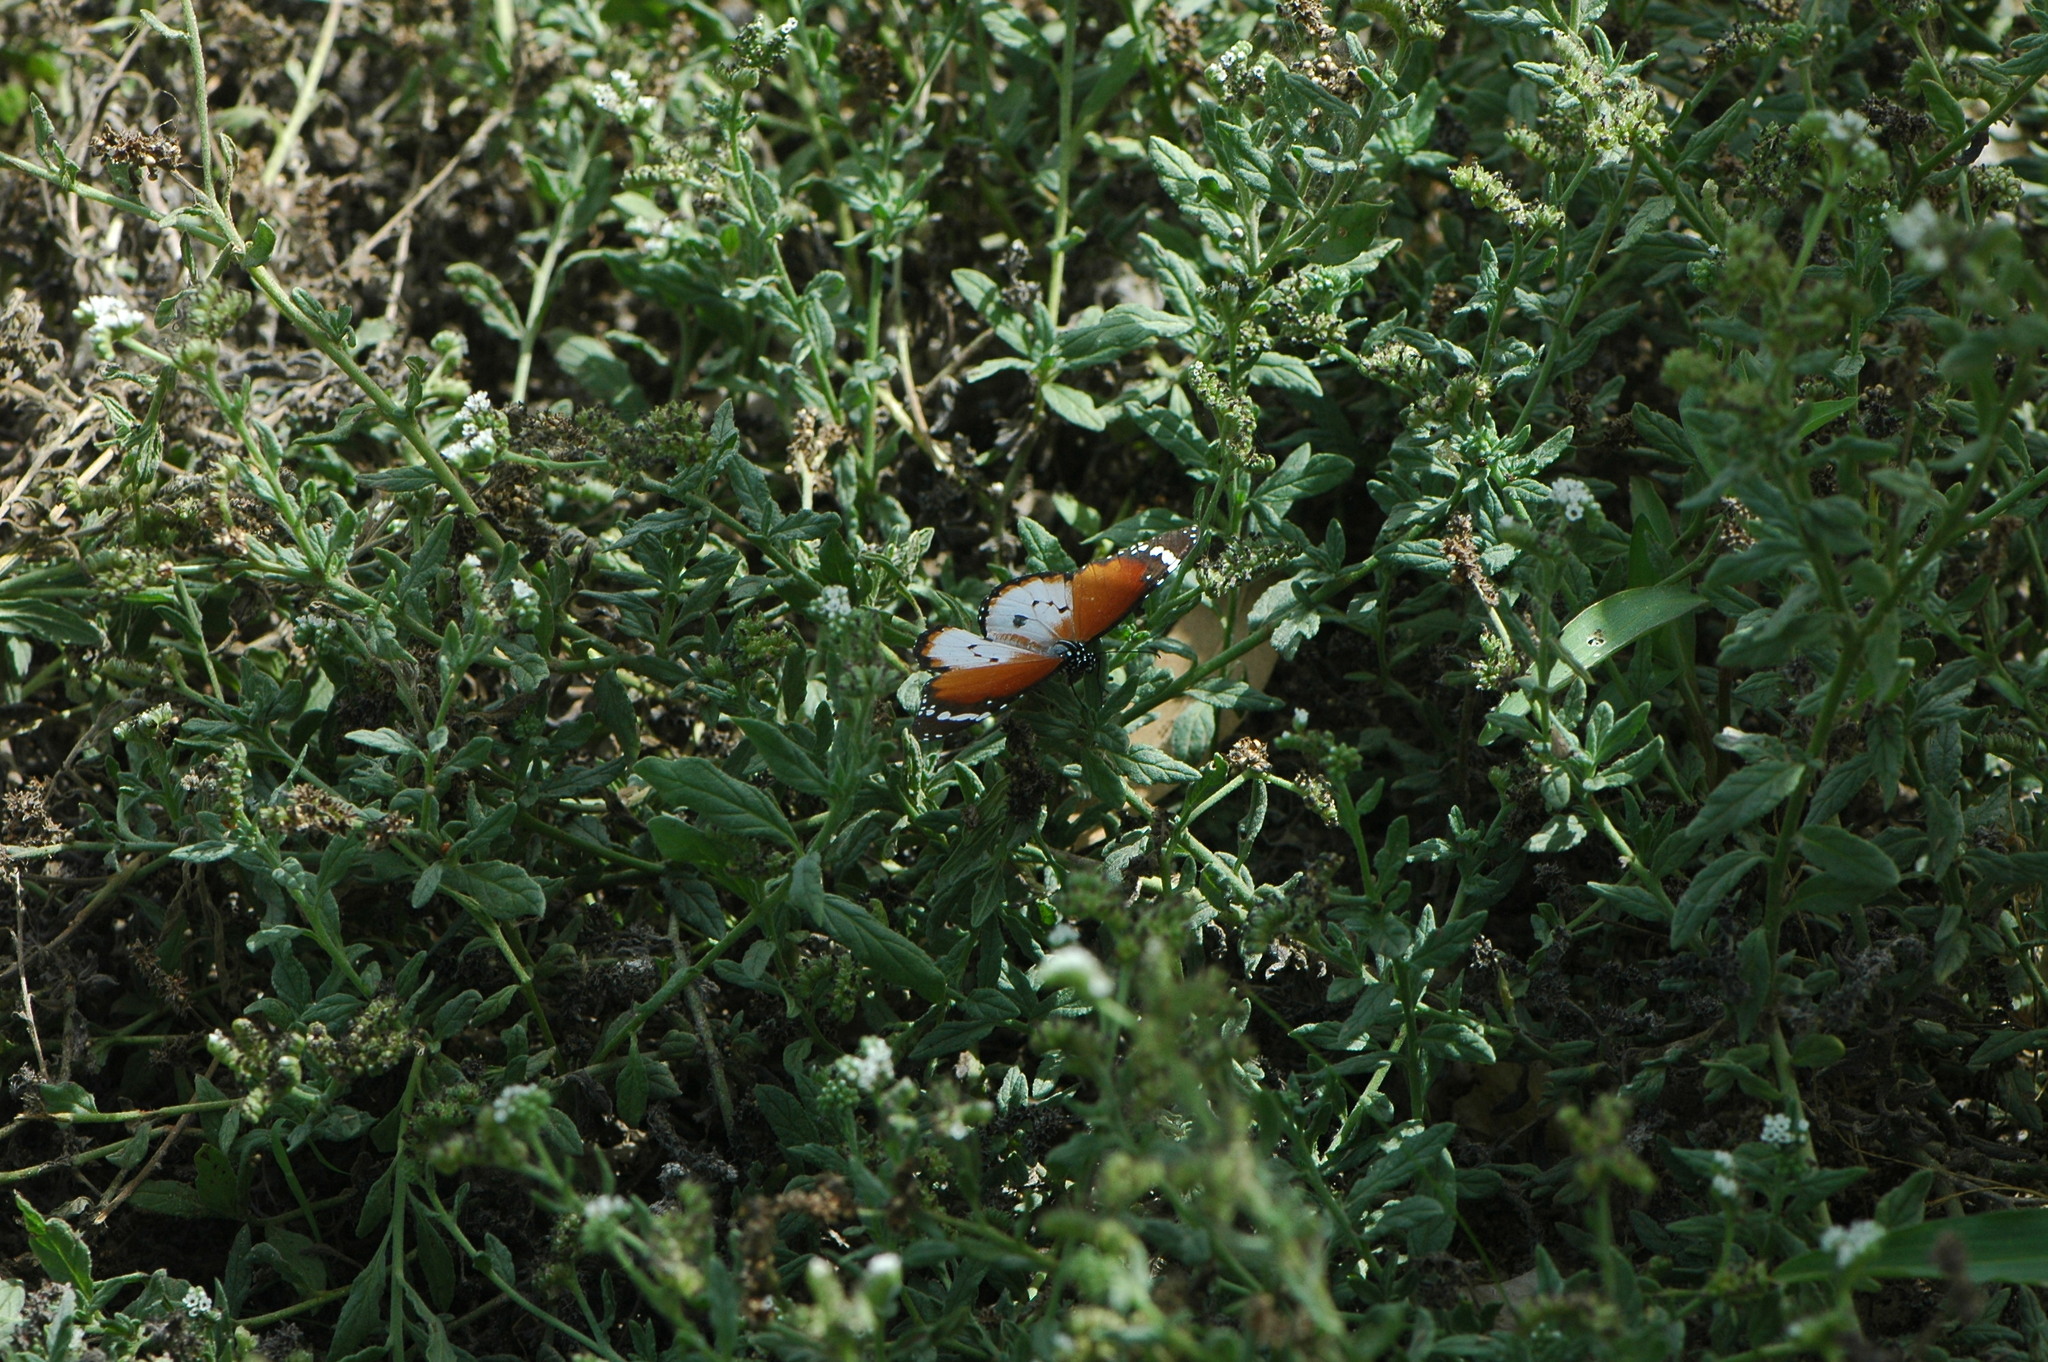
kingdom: Animalia
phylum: Arthropoda
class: Insecta
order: Lepidoptera
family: Nymphalidae
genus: Danaus
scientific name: Danaus chrysippus
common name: Plain tiger
